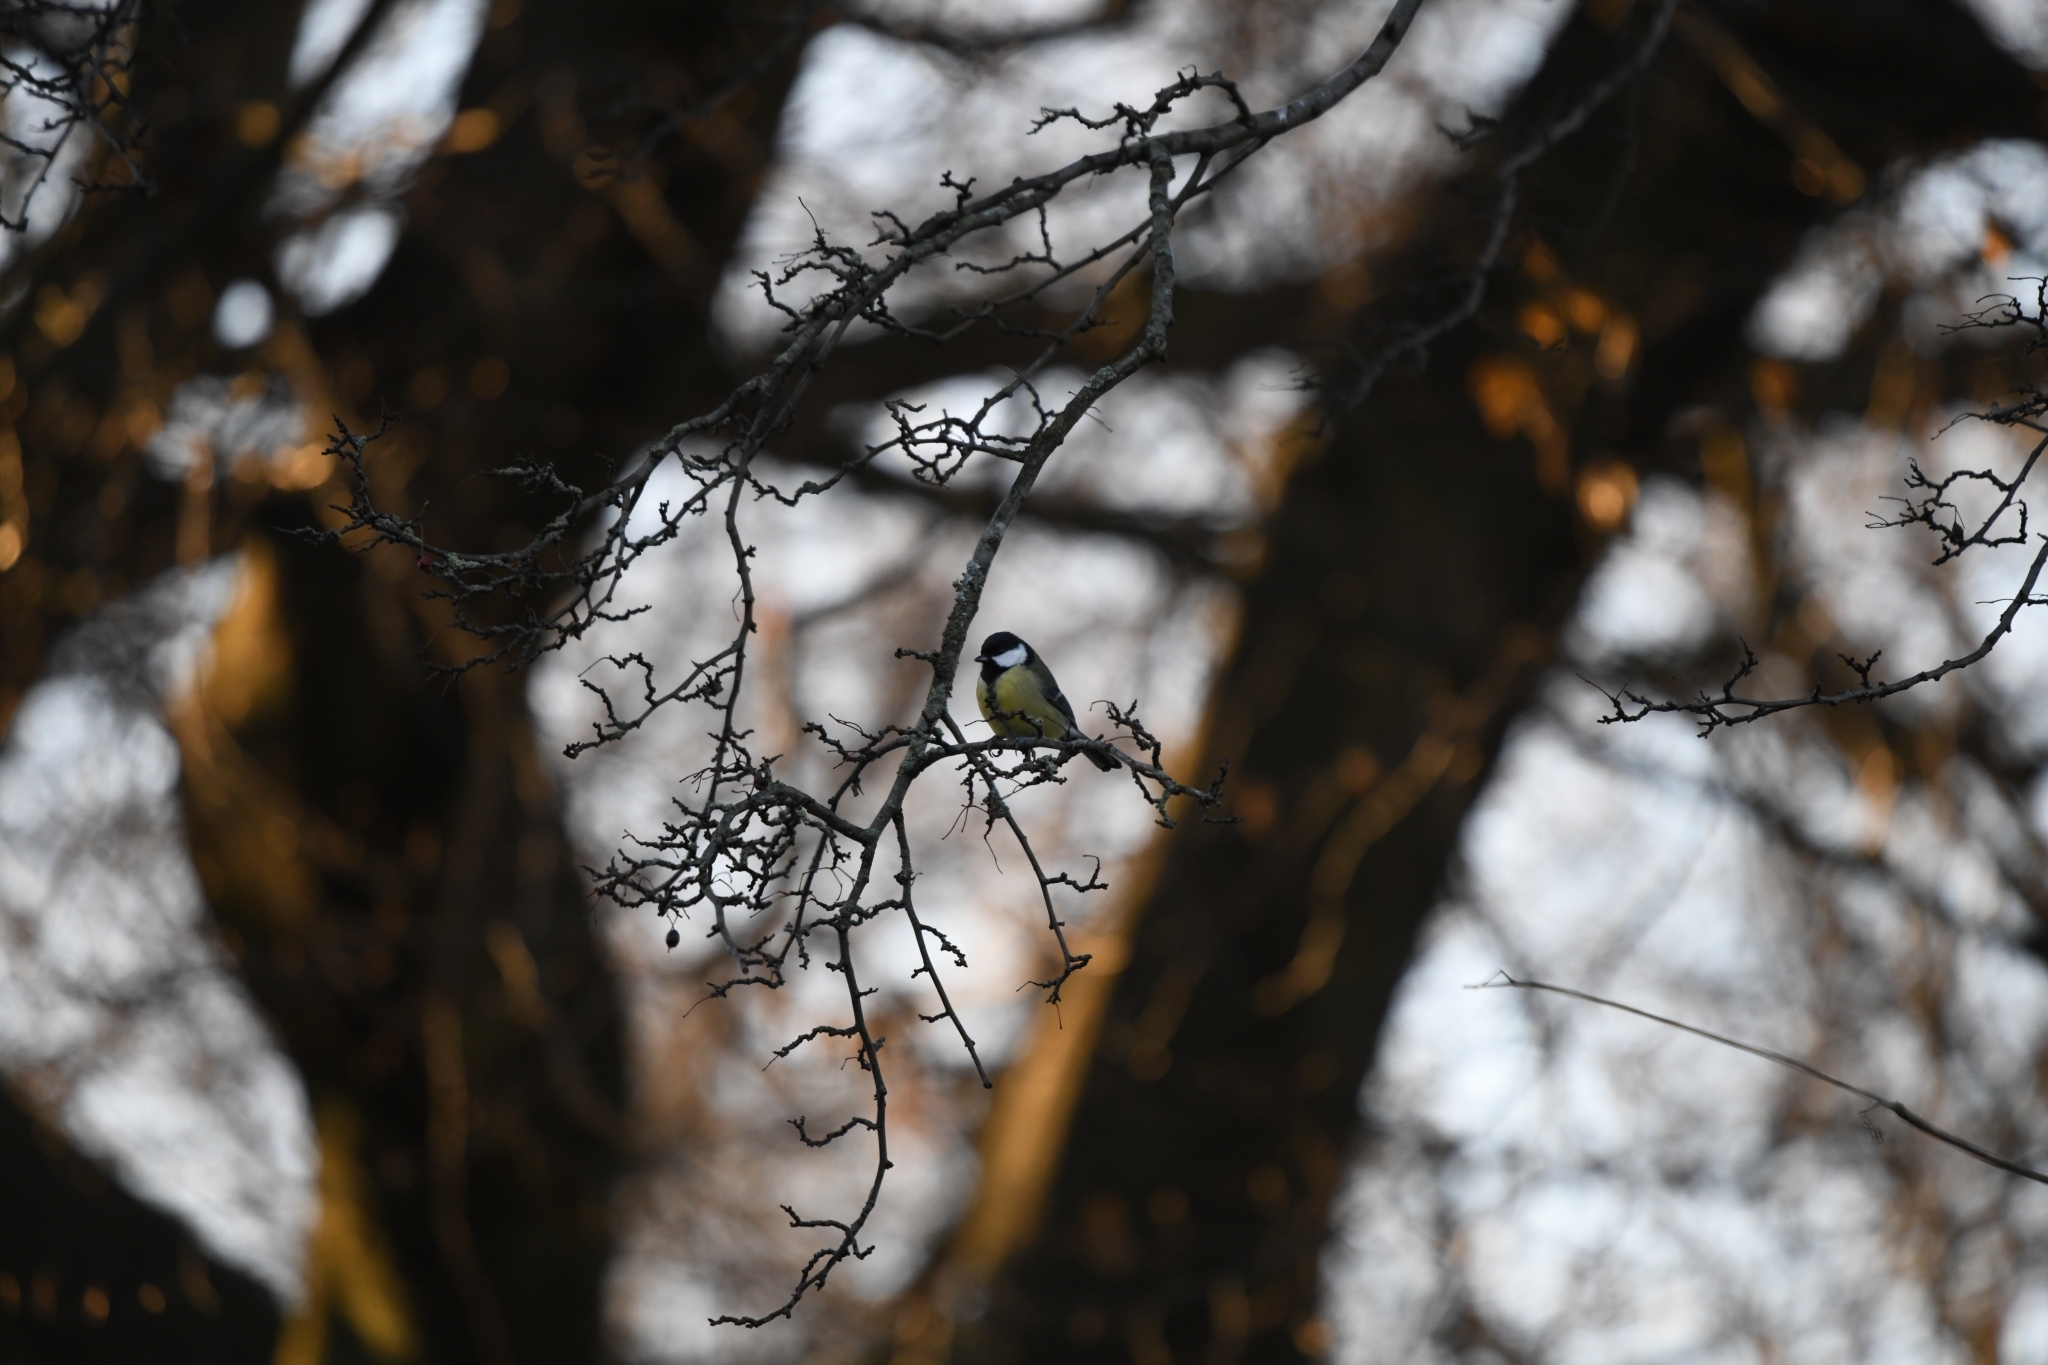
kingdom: Animalia
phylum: Chordata
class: Aves
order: Passeriformes
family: Paridae
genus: Parus
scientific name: Parus major
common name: Great tit
